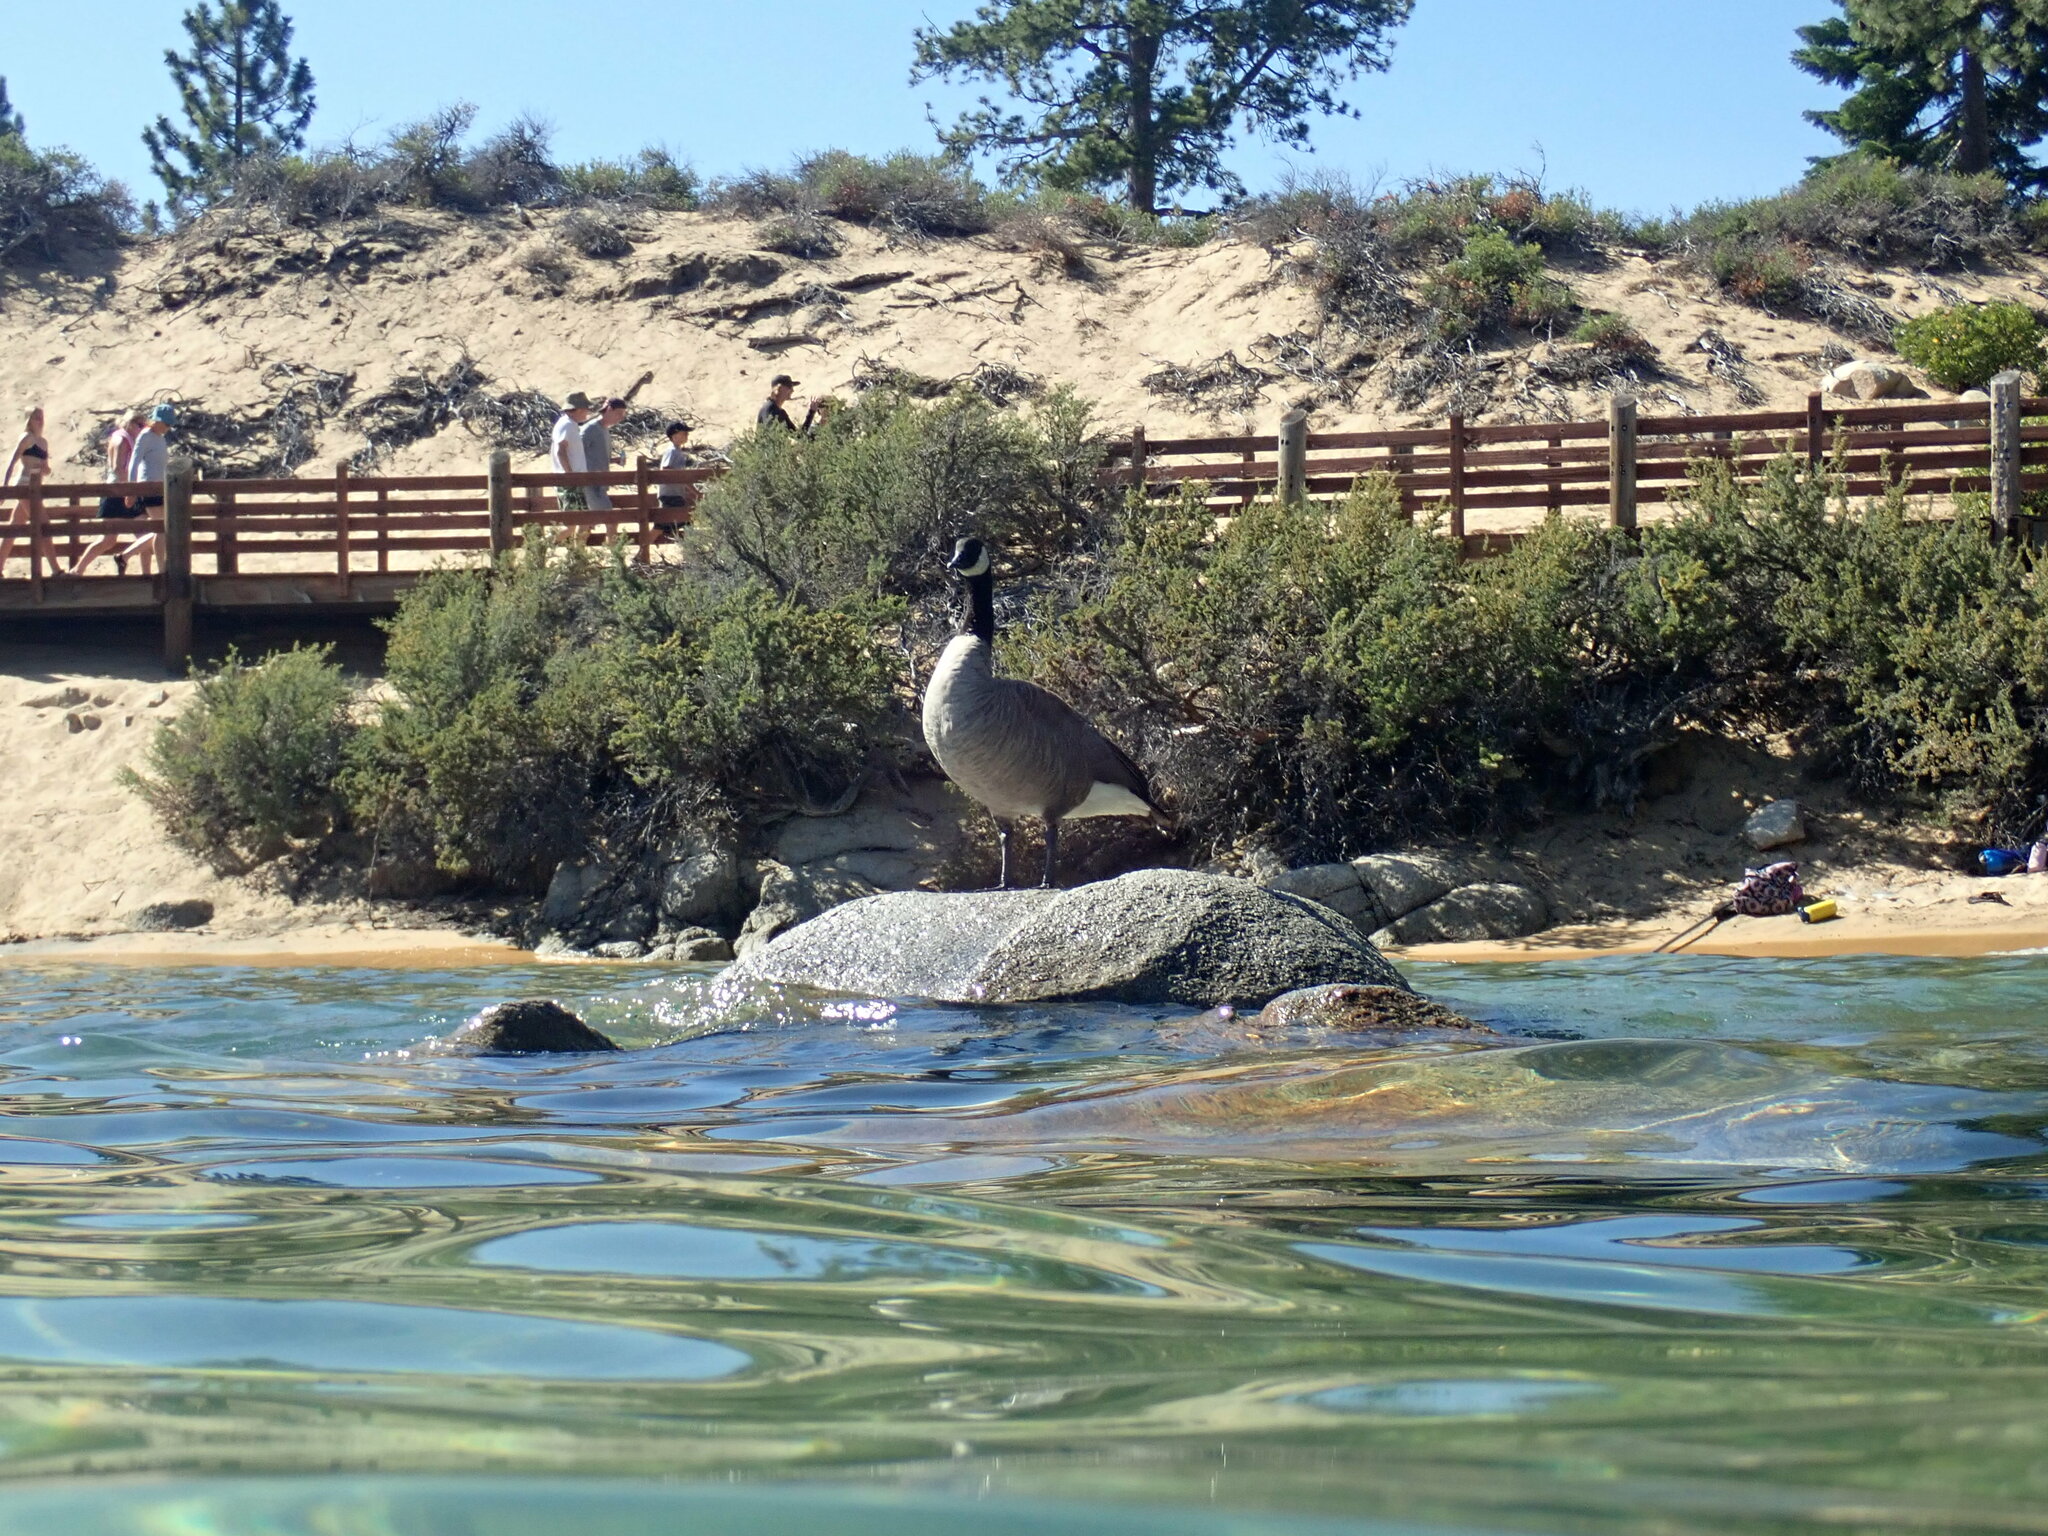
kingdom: Animalia
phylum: Chordata
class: Aves
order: Anseriformes
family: Anatidae
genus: Branta
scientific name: Branta canadensis
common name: Canada goose
